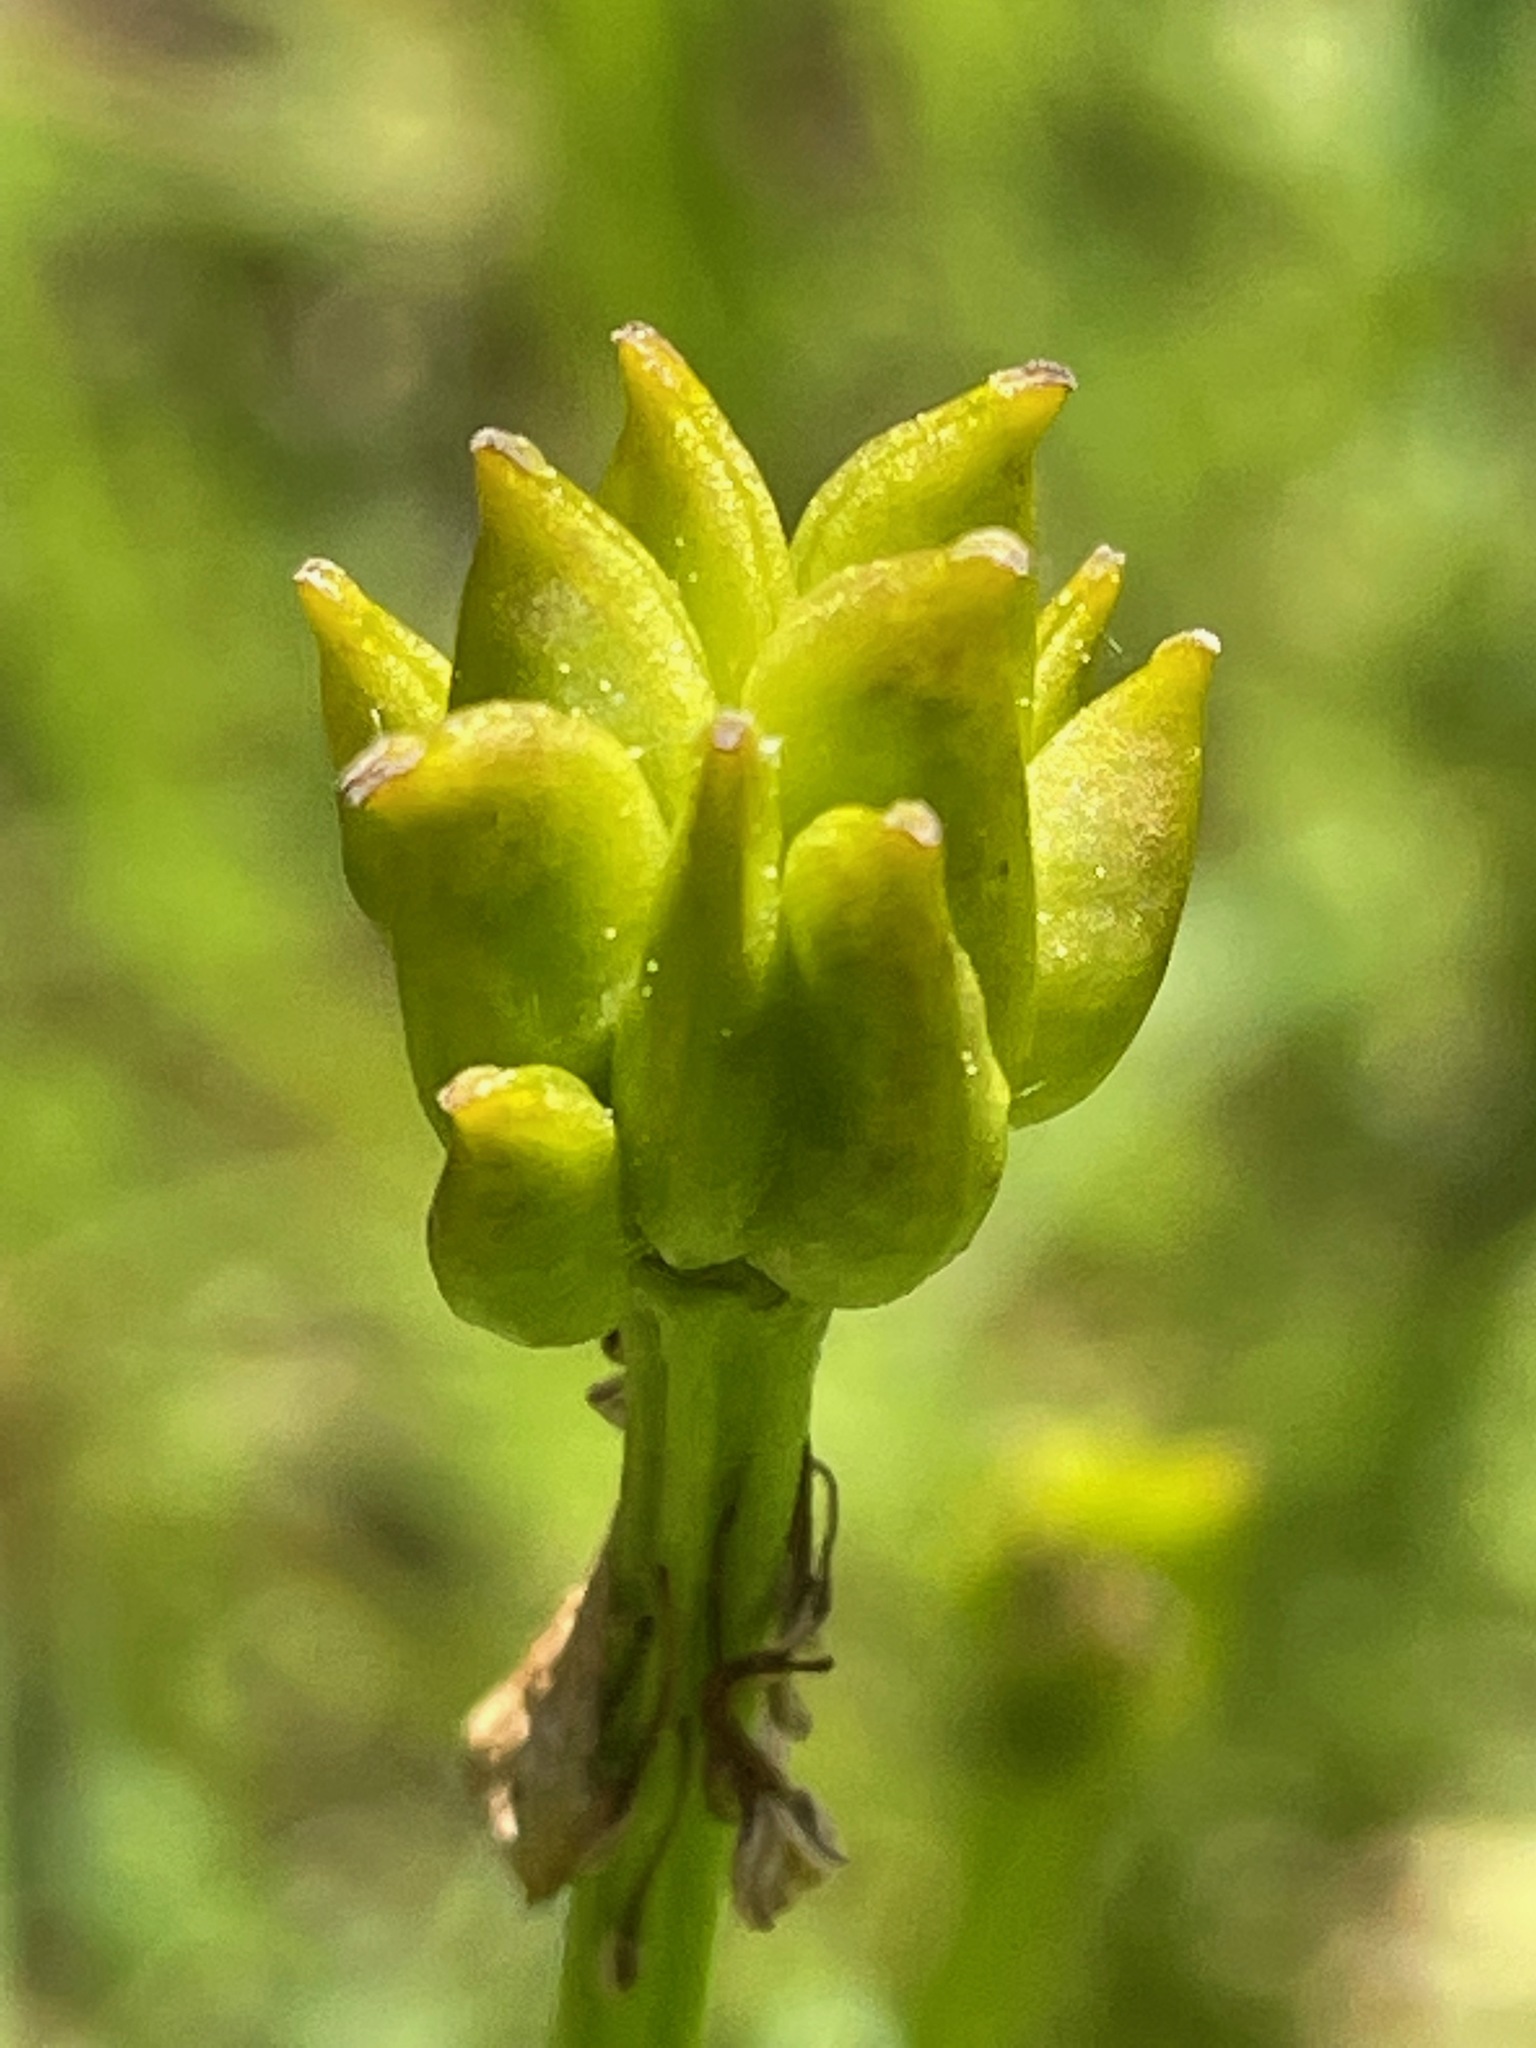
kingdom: Plantae
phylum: Tracheophyta
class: Magnoliopsida
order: Ranunculales
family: Ranunculaceae
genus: Caltha
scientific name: Caltha palustris
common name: Marsh marigold
